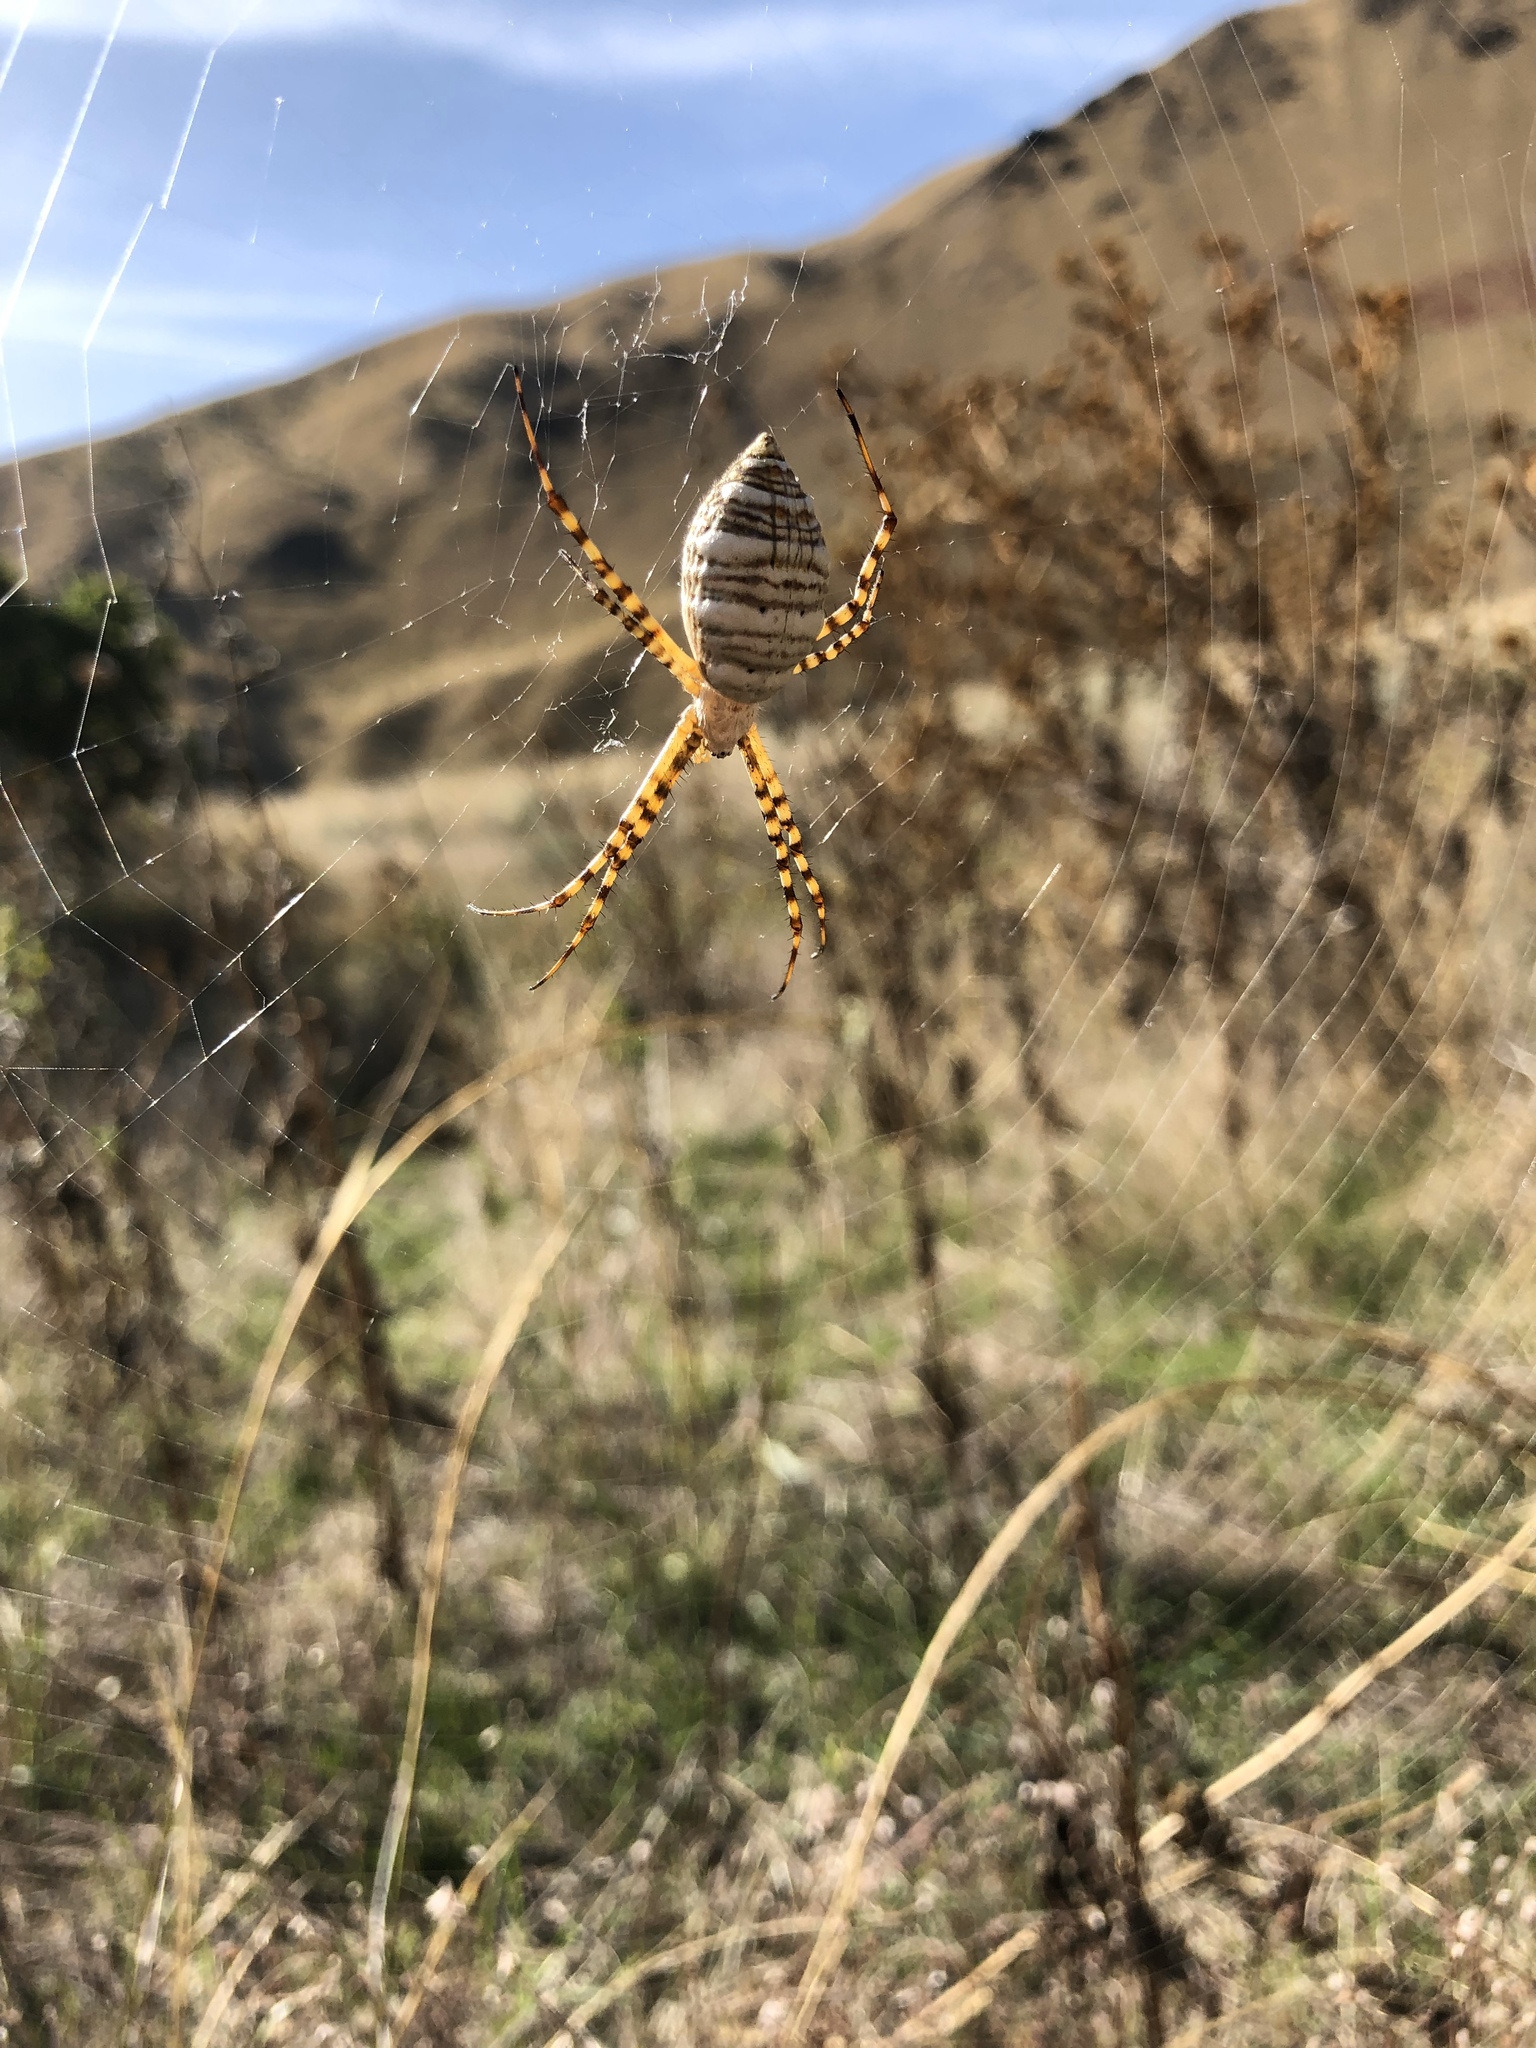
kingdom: Animalia
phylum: Arthropoda
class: Arachnida
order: Araneae
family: Araneidae
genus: Argiope
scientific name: Argiope trifasciata
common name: Banded garden spider
